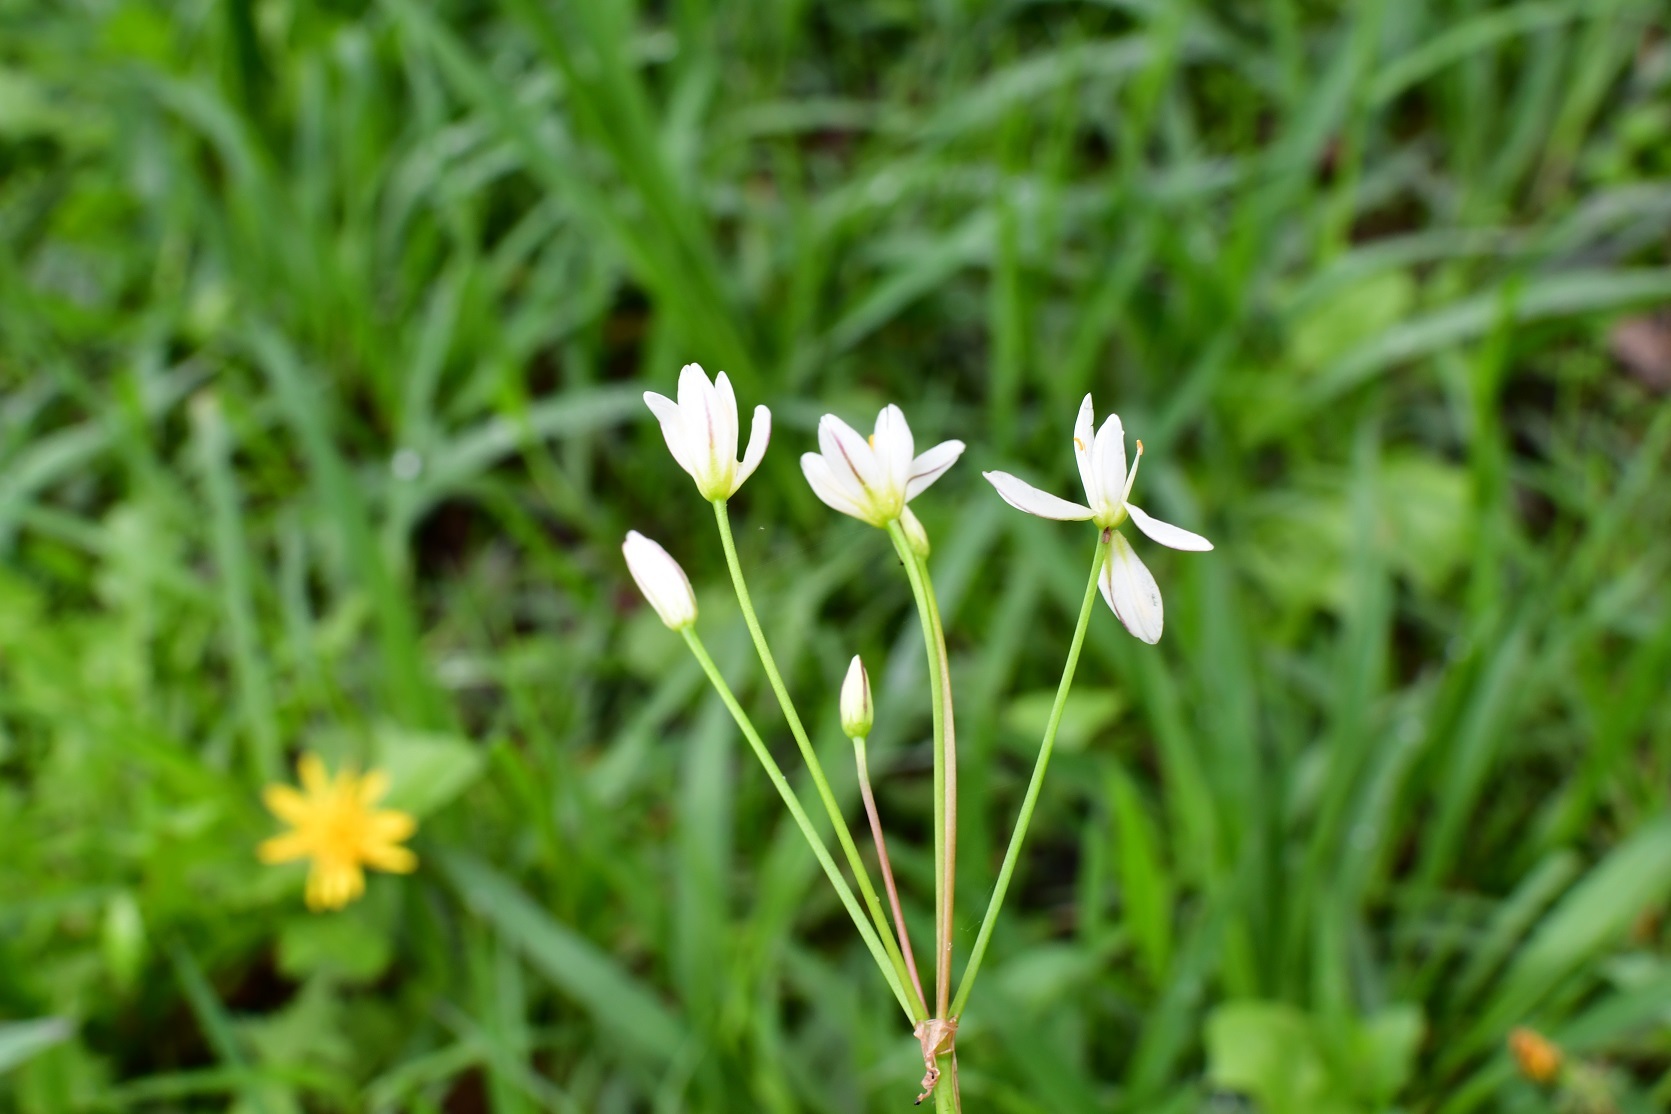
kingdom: Plantae
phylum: Tracheophyta
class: Liliopsida
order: Asparagales
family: Amaryllidaceae
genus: Nothoscordum
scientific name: Nothoscordum gracile
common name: Slender false garlic
